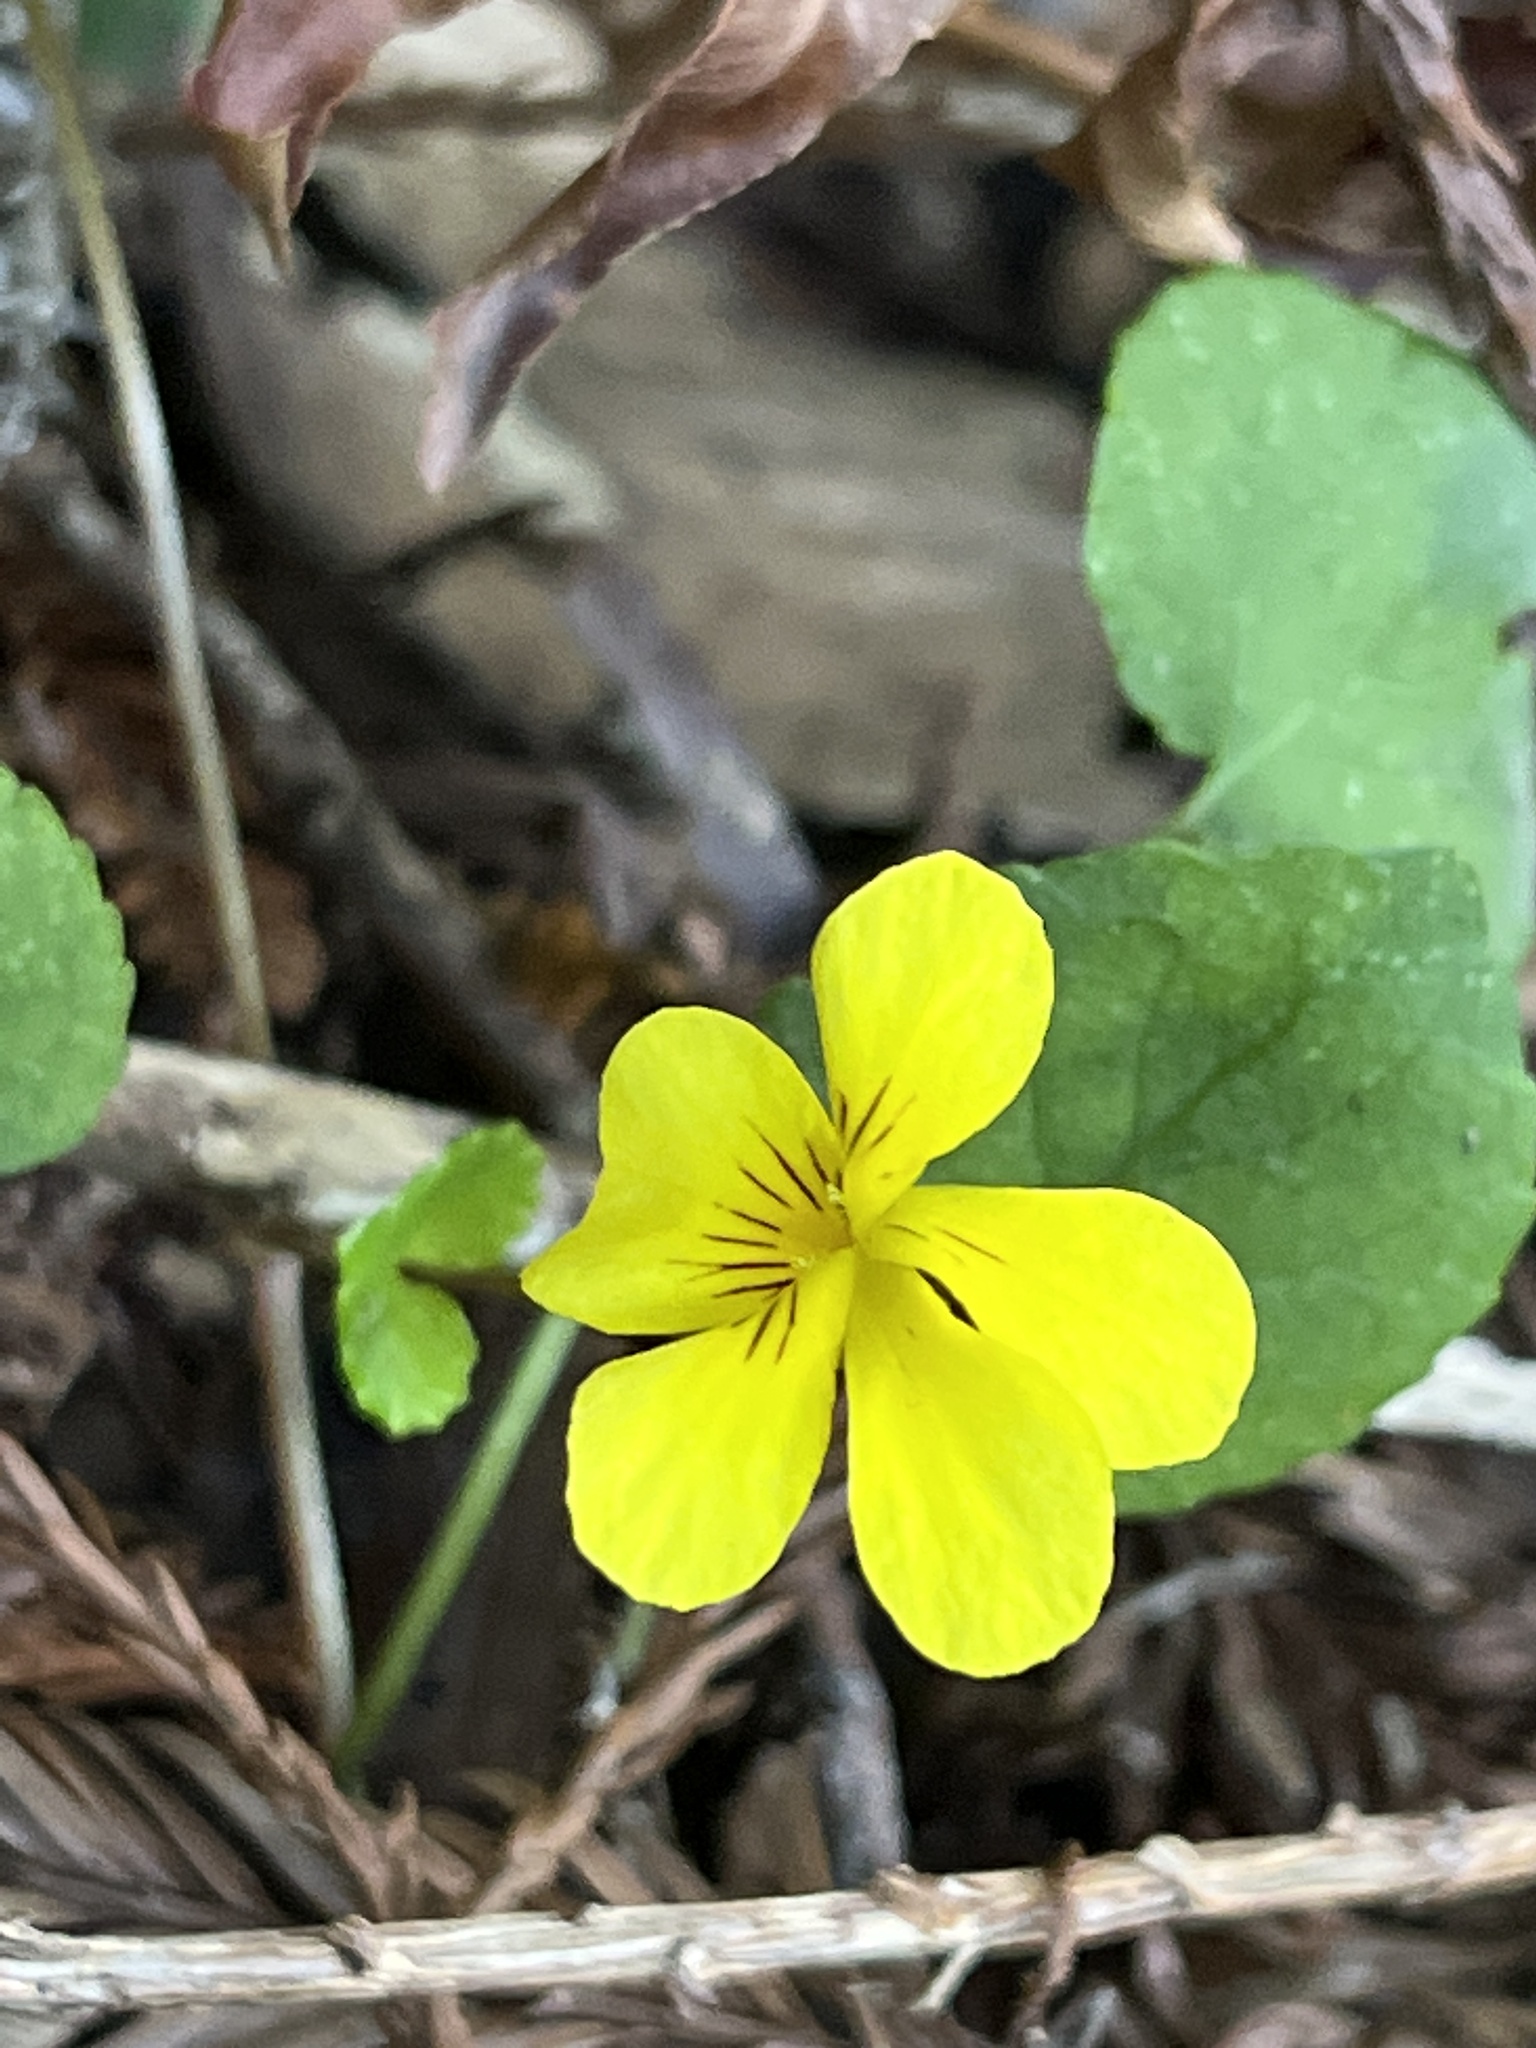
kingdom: Plantae
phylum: Tracheophyta
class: Magnoliopsida
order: Malpighiales
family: Violaceae
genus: Viola
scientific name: Viola sempervirens
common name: Evergreen violet
